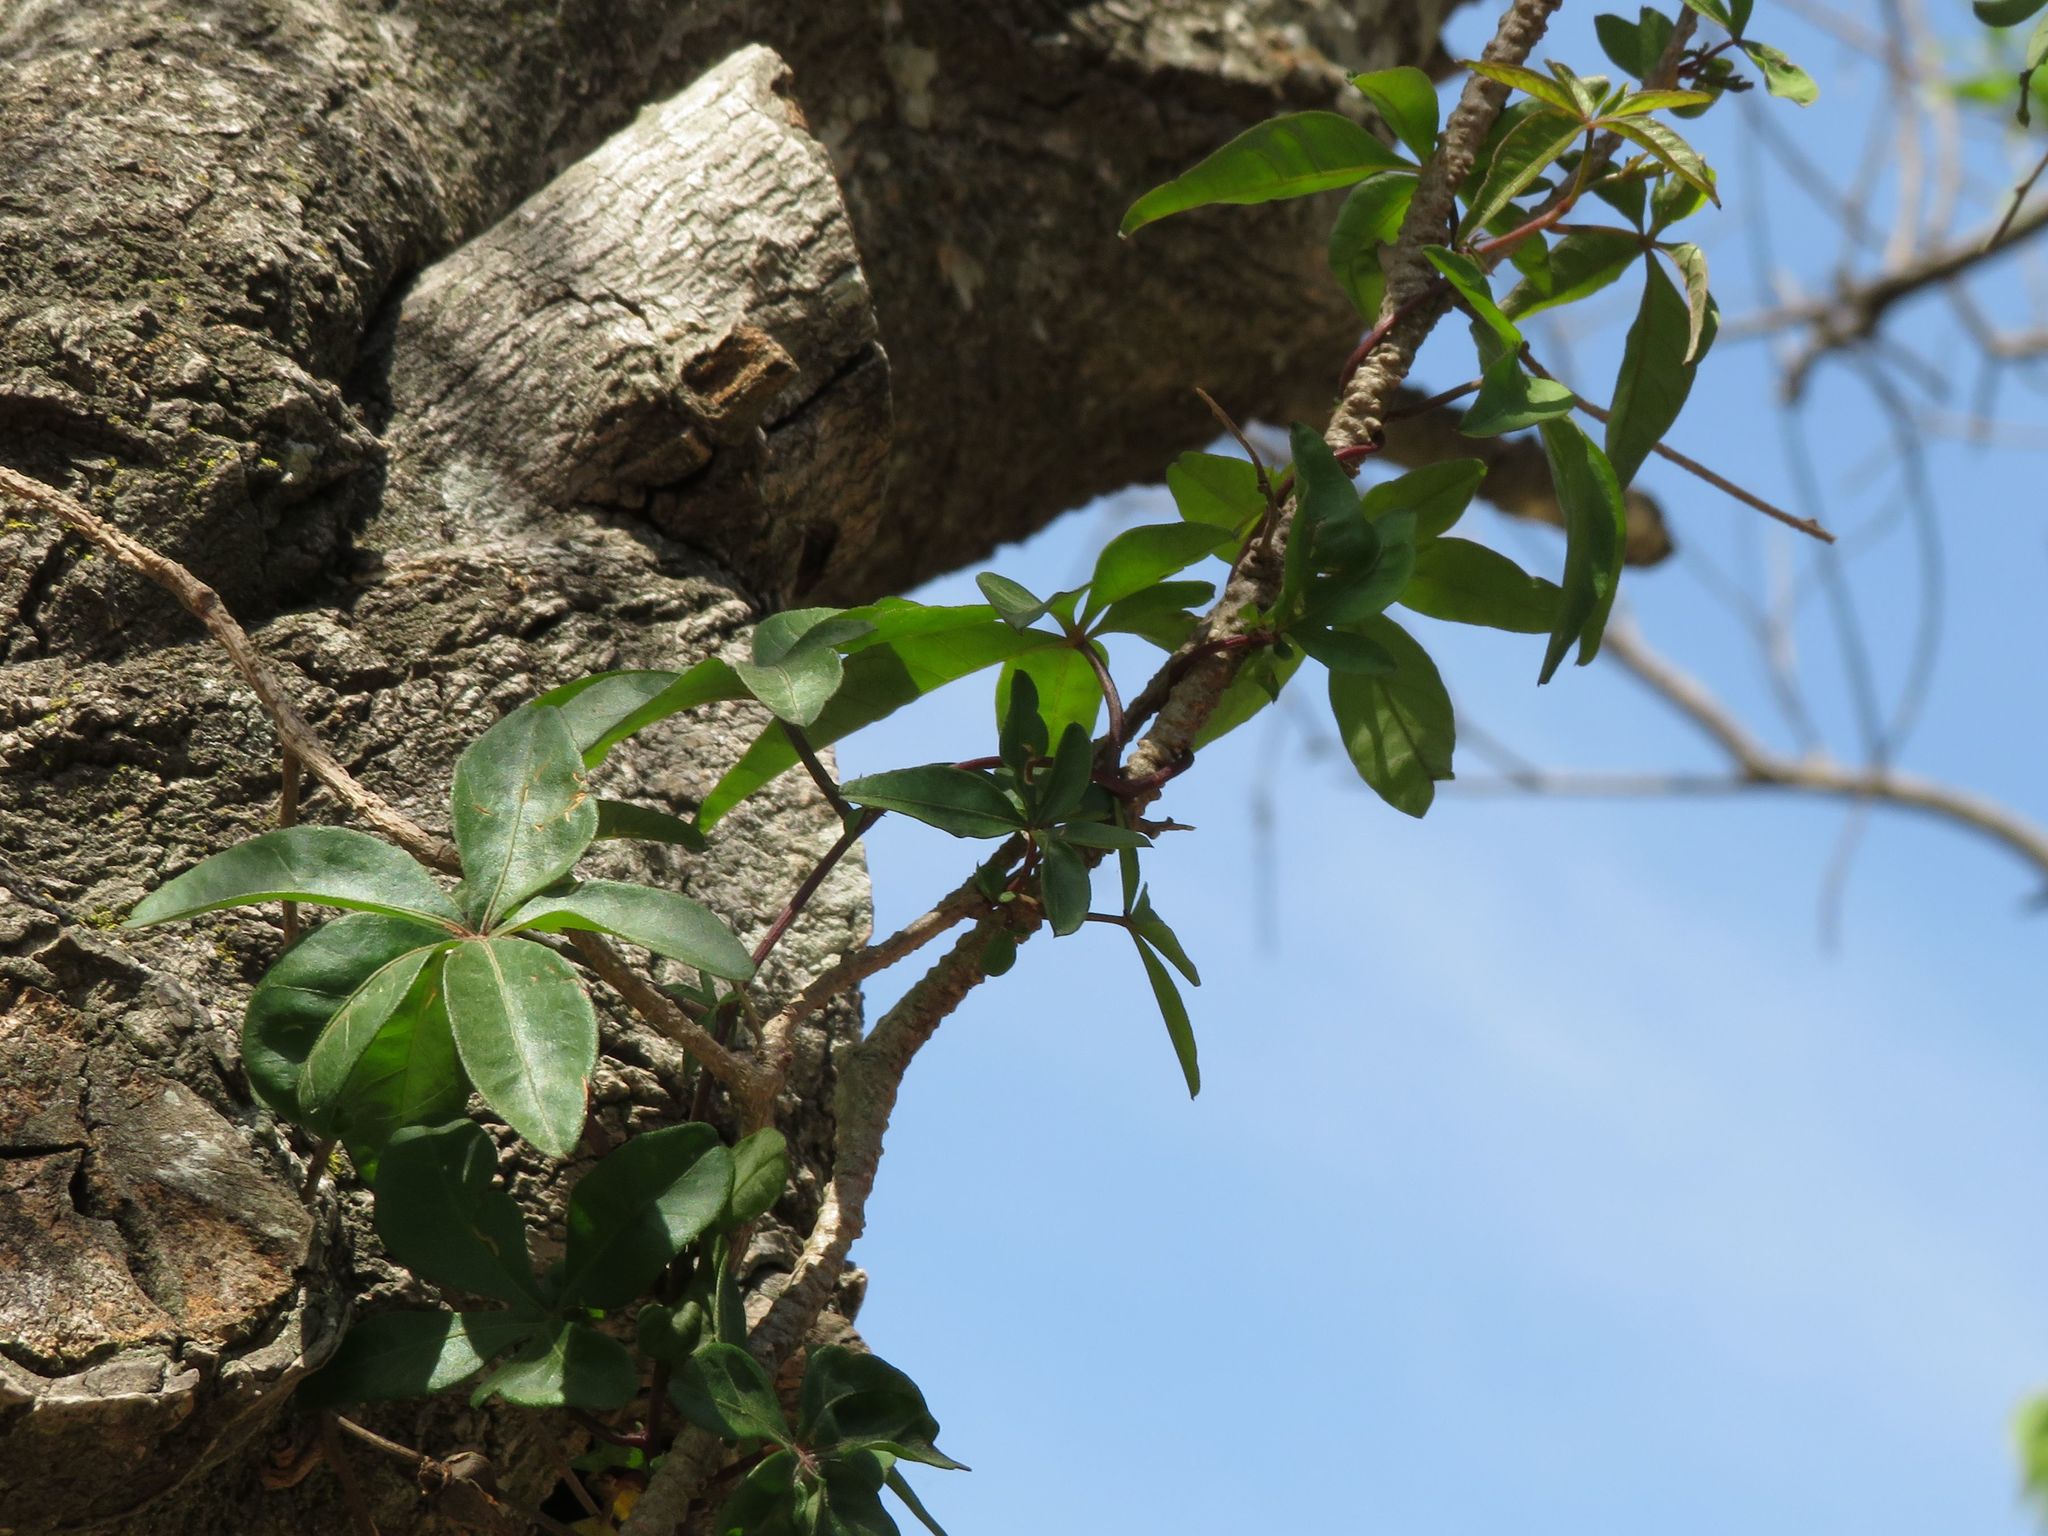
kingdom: Plantae
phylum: Tracheophyta
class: Magnoliopsida
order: Solanales
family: Convolvulaceae
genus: Ipomoea
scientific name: Ipomoea cairica
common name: Mile a minute vine
